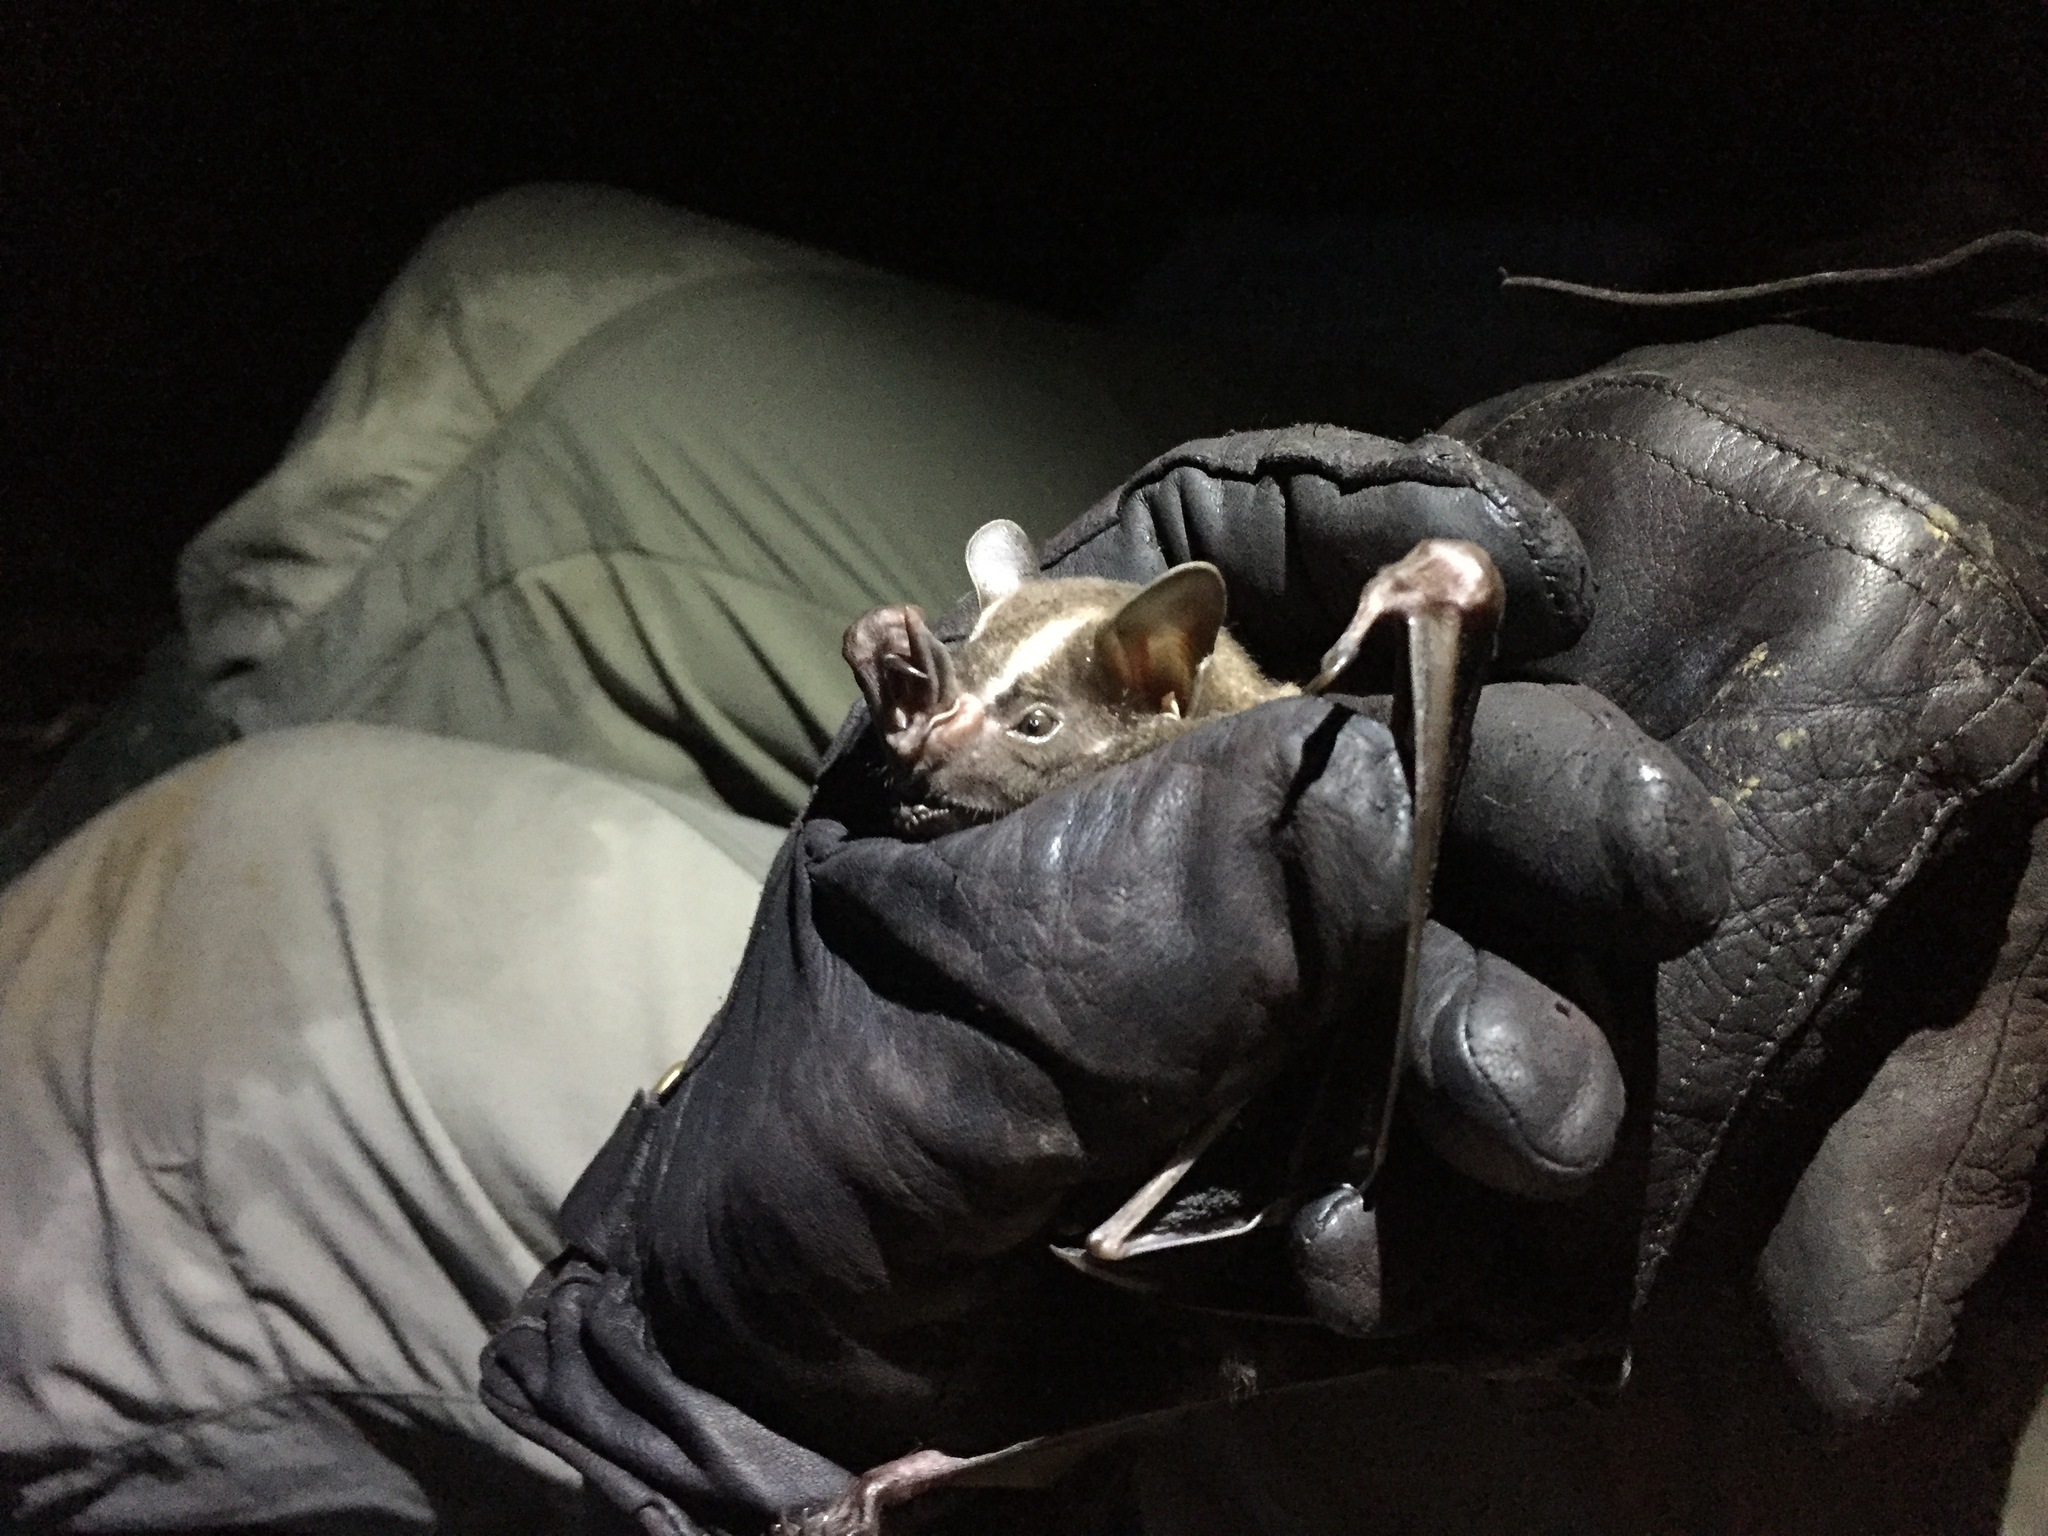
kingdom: Animalia
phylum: Chordata
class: Mammalia
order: Chiroptera
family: Phyllostomidae
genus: Artibeus
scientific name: Artibeus lituratus
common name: Great fruit-eating bat
